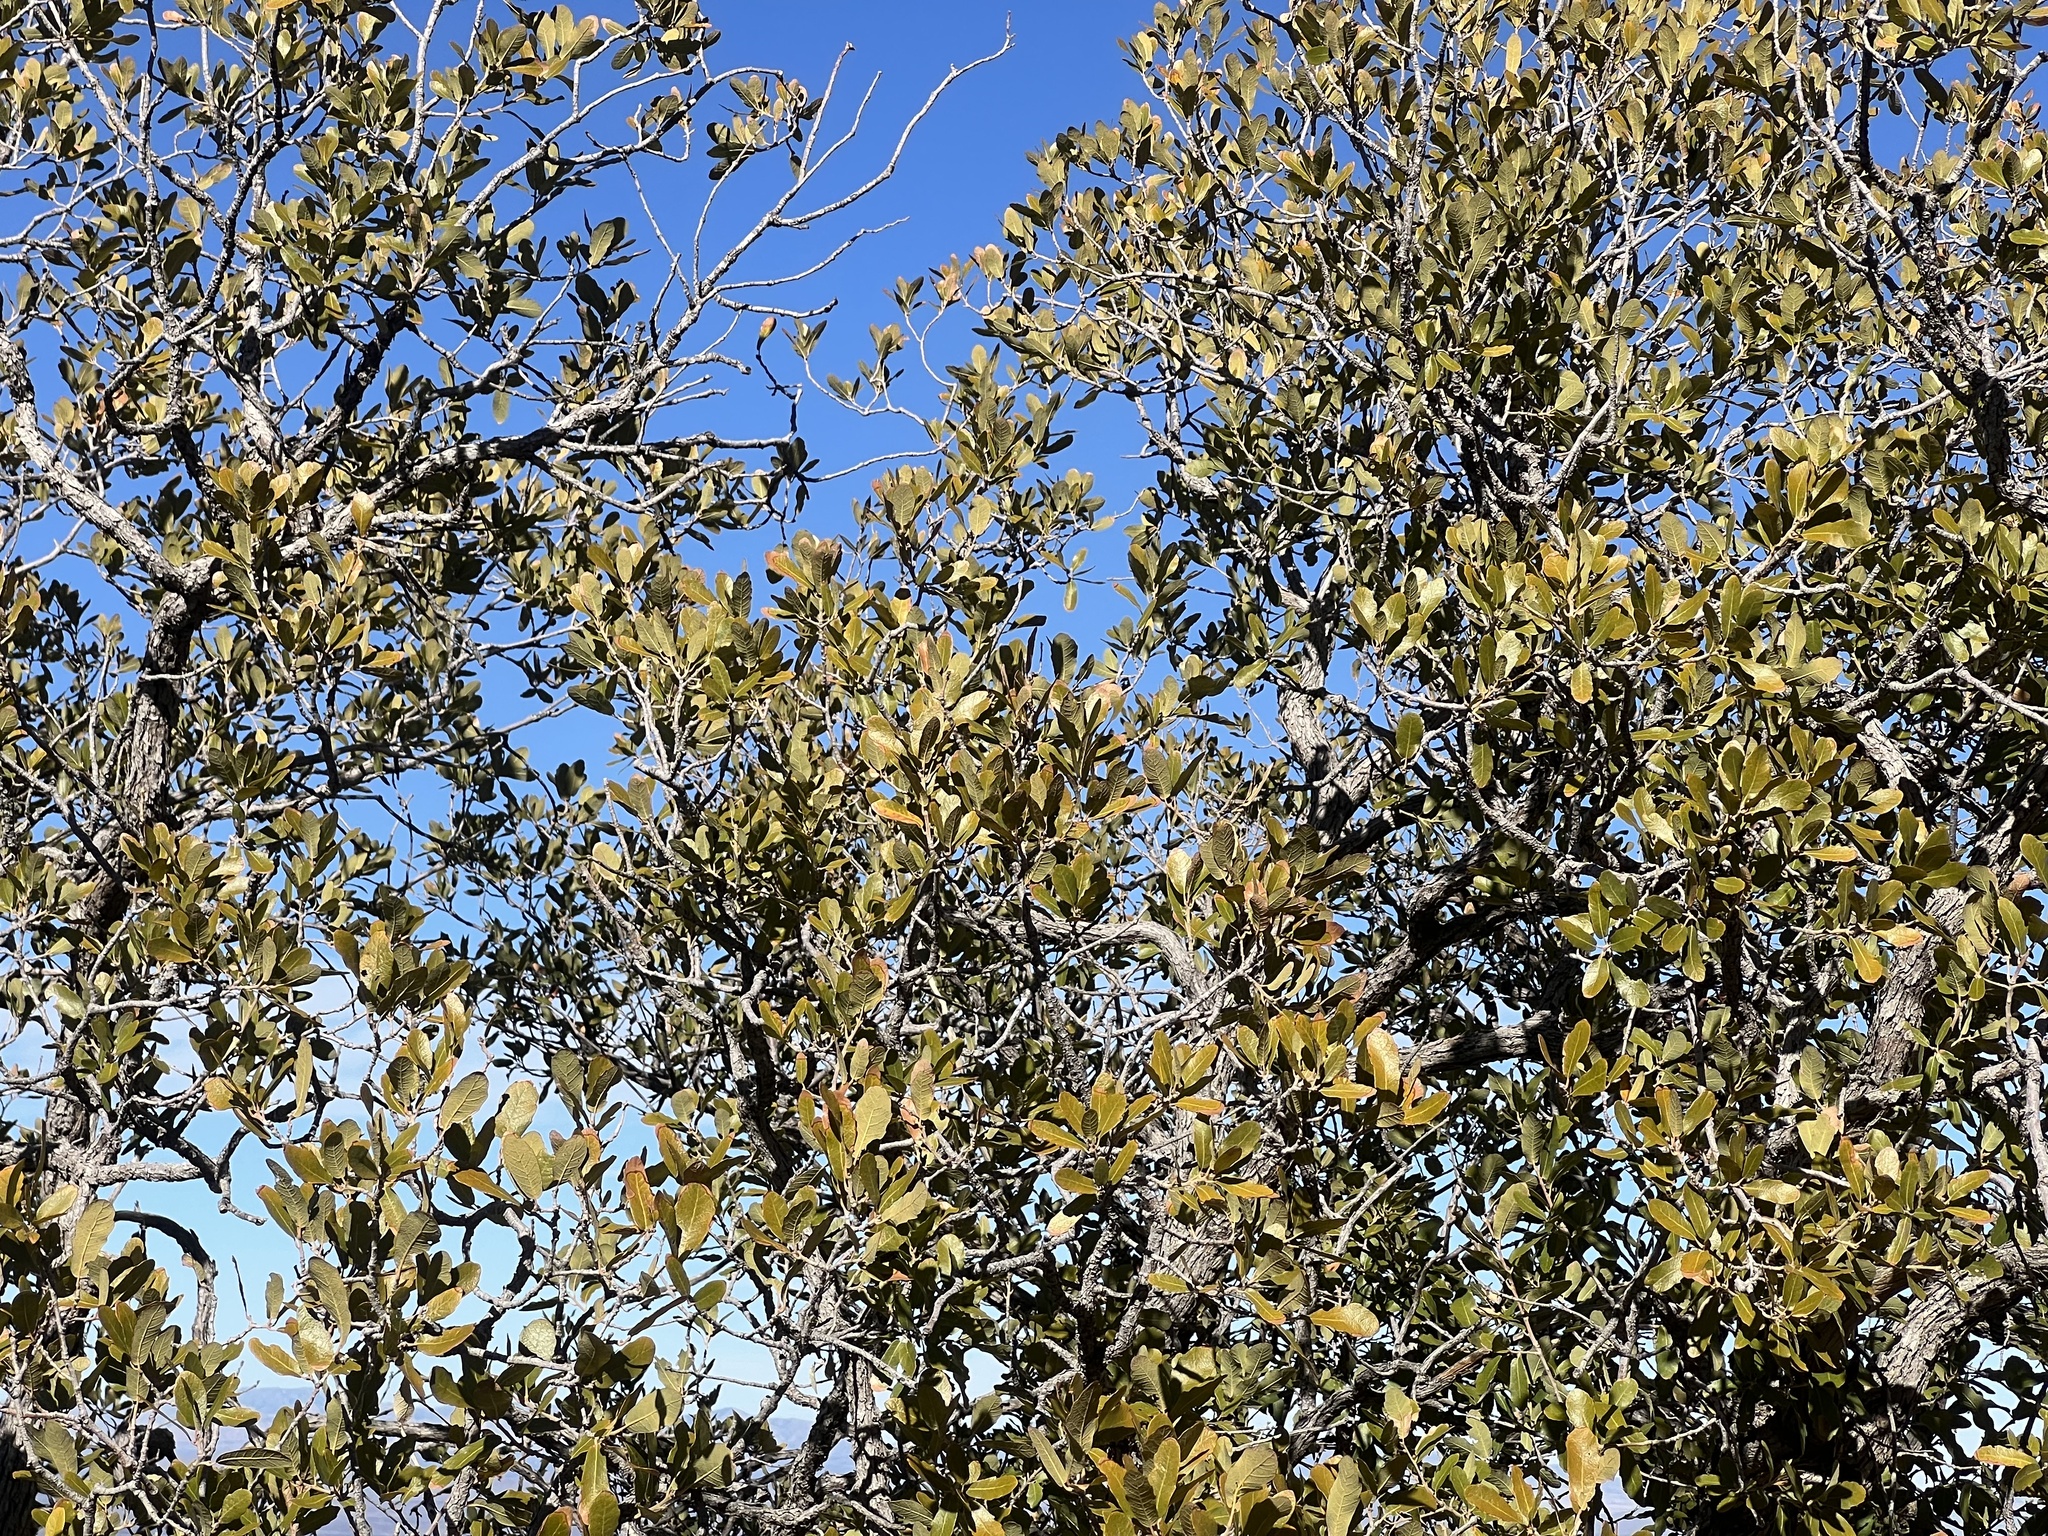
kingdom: Plantae
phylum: Tracheophyta
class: Magnoliopsida
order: Fagales
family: Fagaceae
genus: Quercus
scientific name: Quercus arizonica
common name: Arizona white oak
